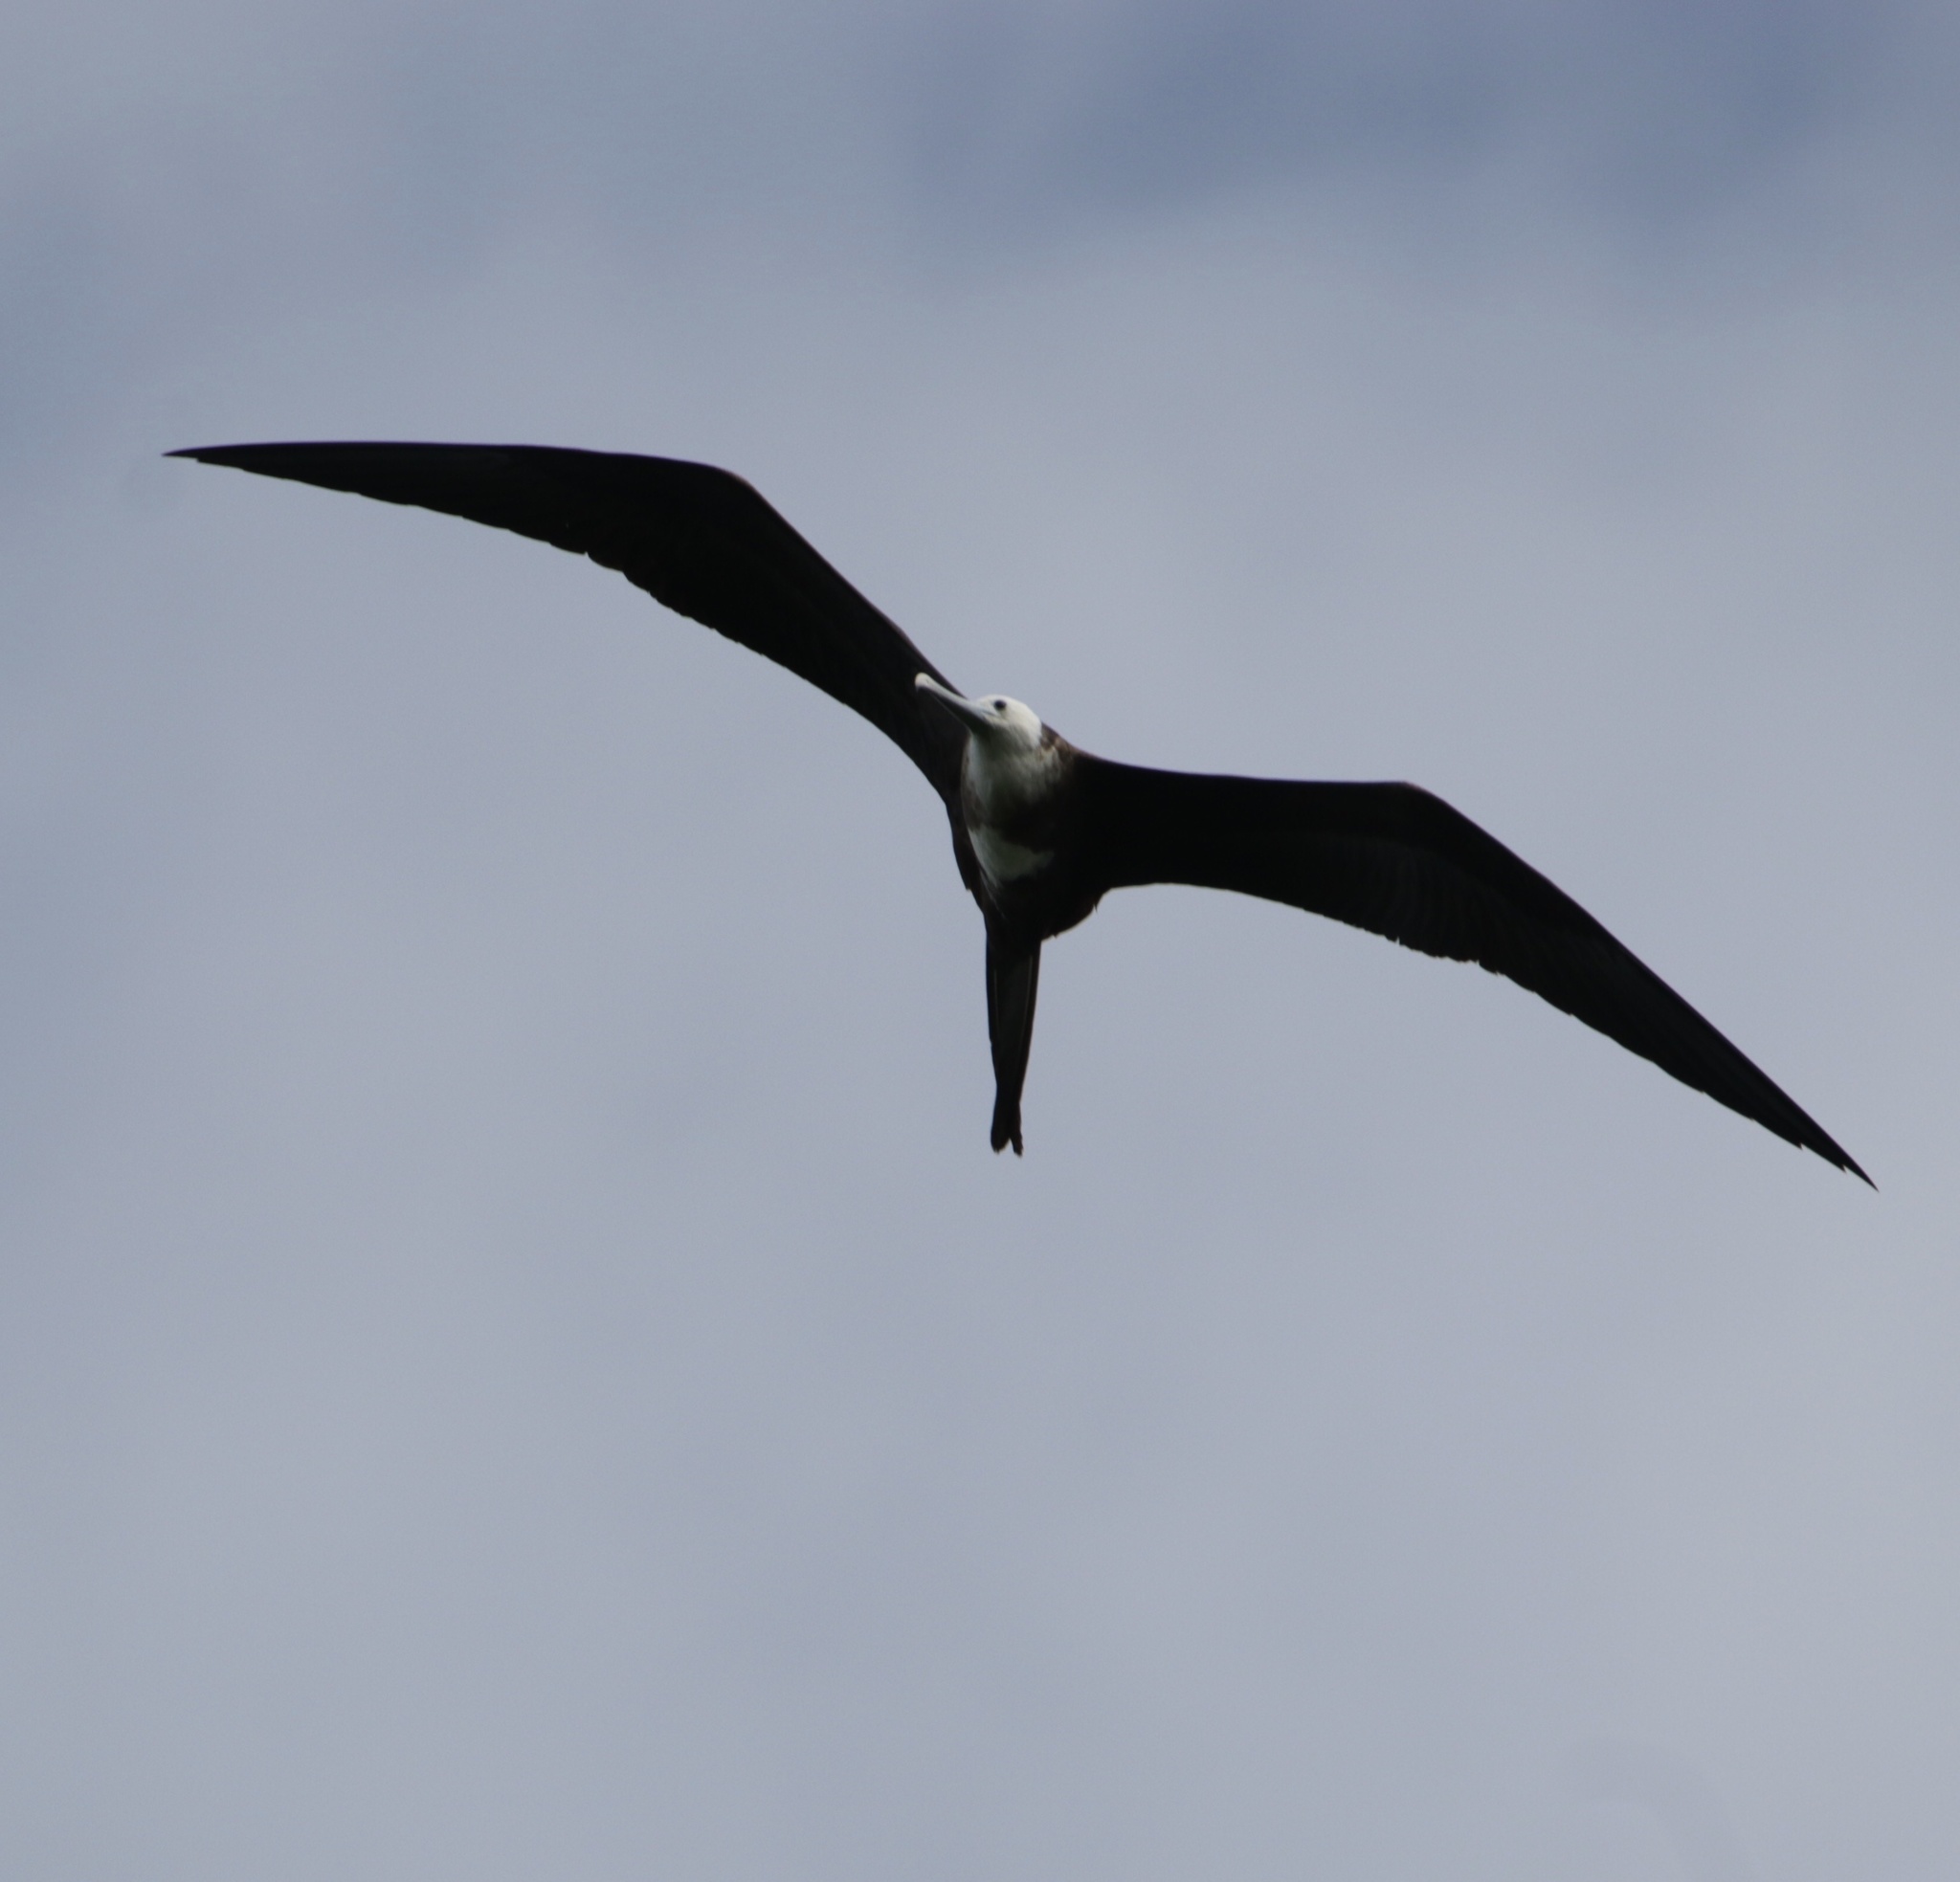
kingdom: Animalia
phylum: Chordata
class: Aves
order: Suliformes
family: Fregatidae
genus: Fregata
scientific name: Fregata magnificens
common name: Magnificent frigatebird
